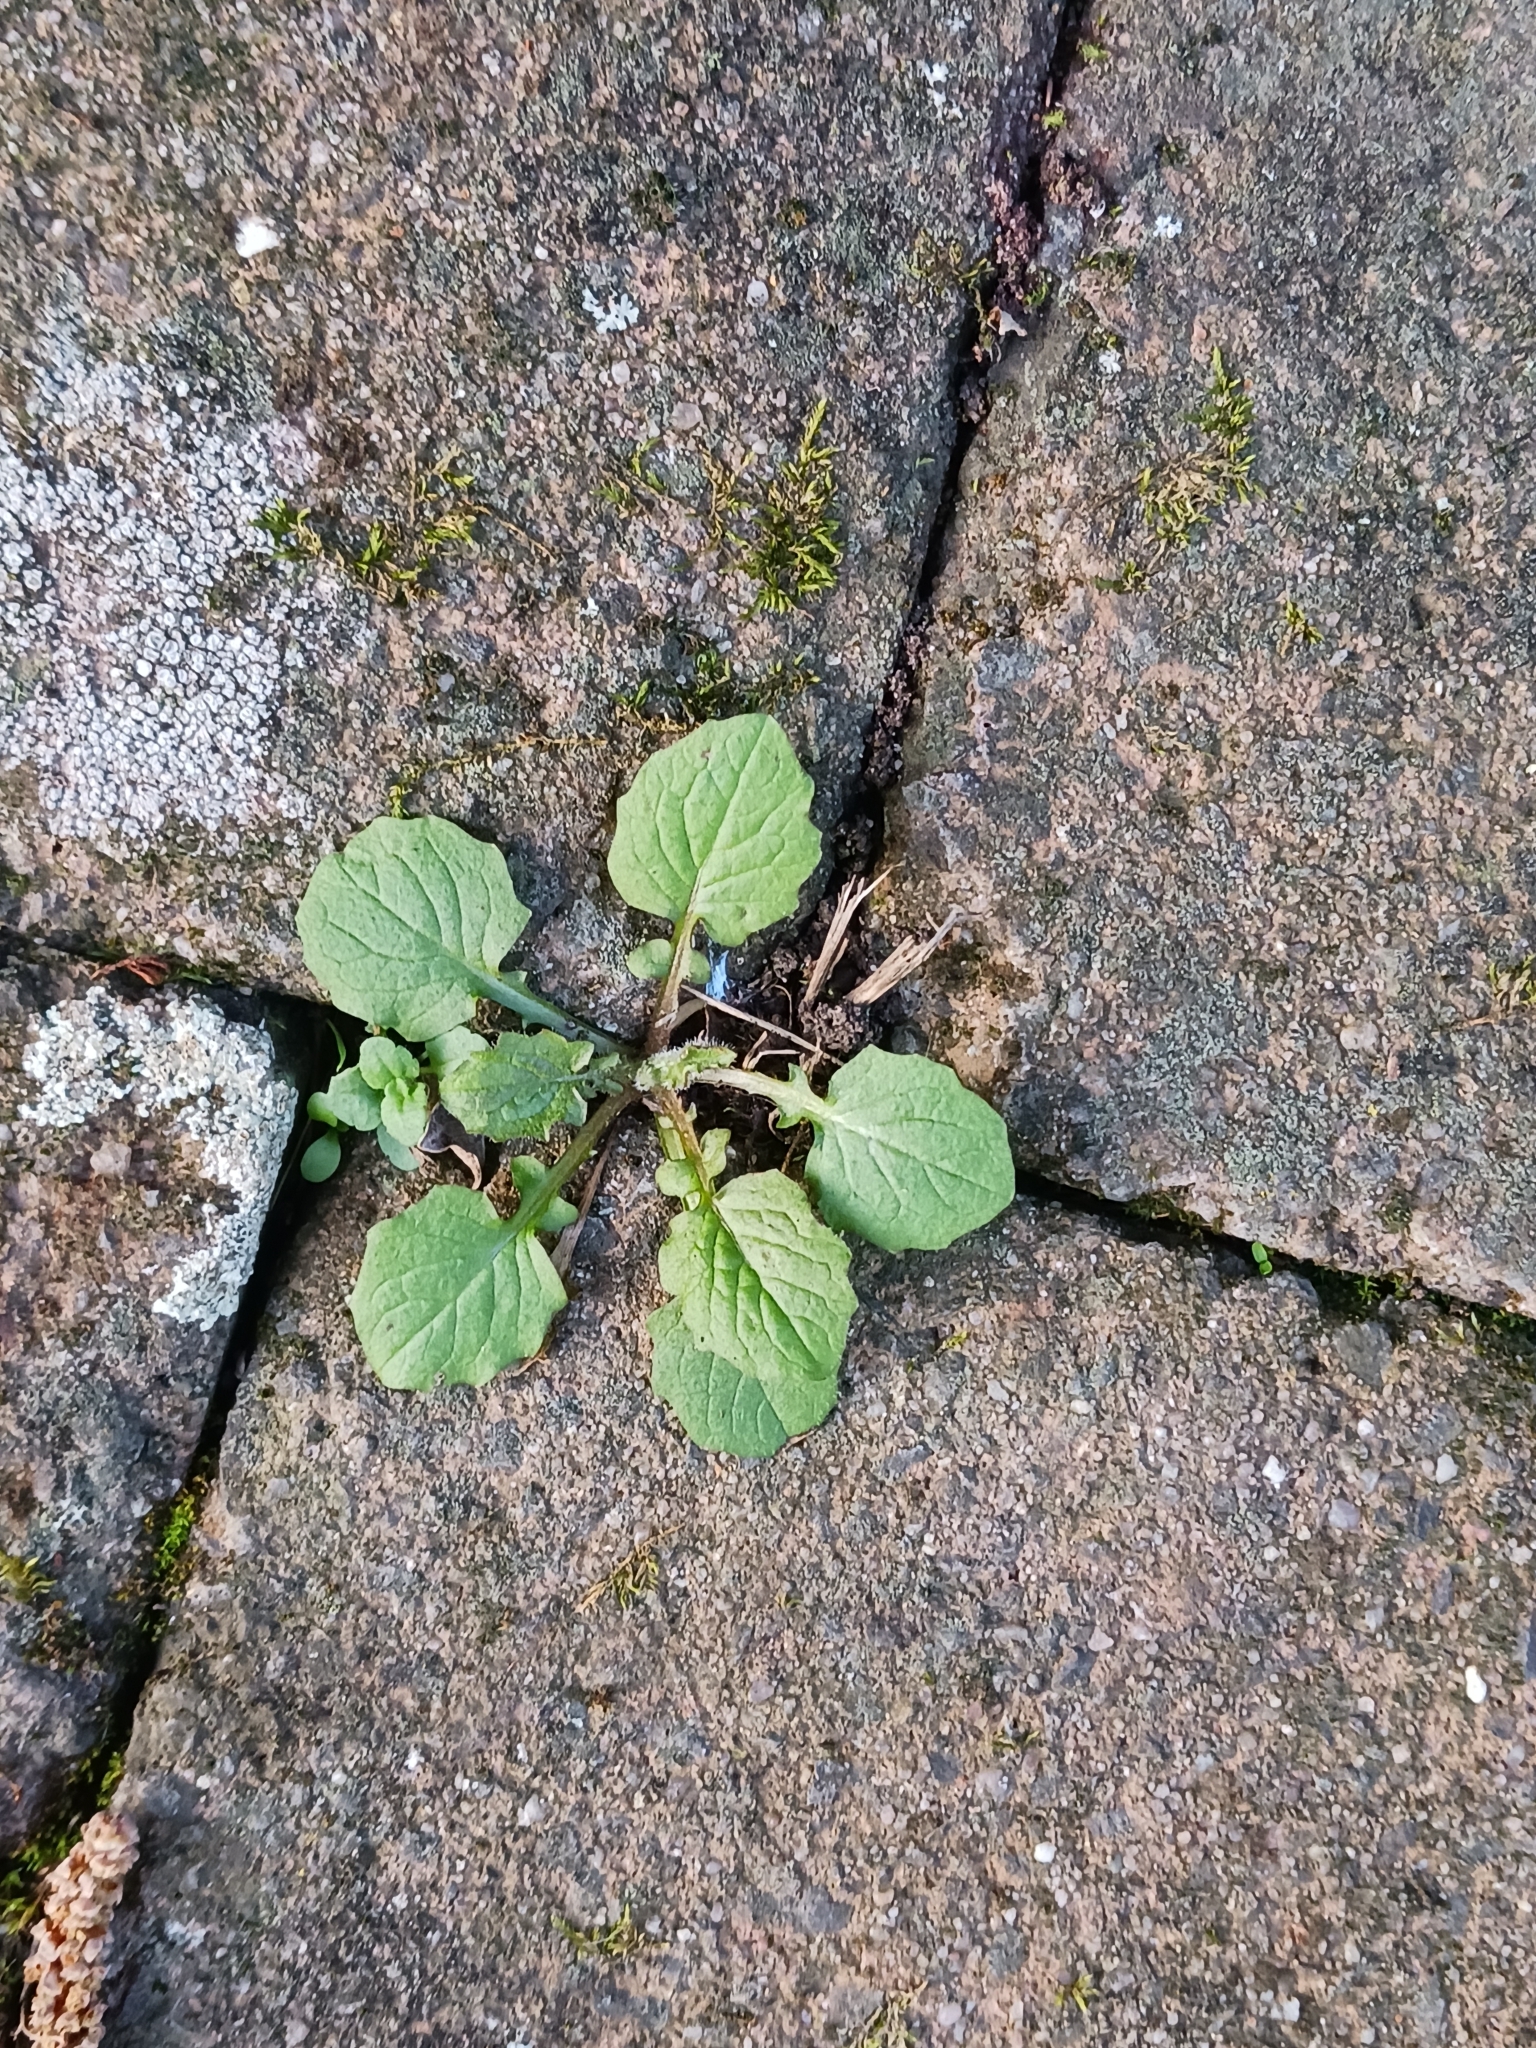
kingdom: Plantae
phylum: Tracheophyta
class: Magnoliopsida
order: Asterales
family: Asteraceae
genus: Lapsana
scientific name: Lapsana communis
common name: Nipplewort
